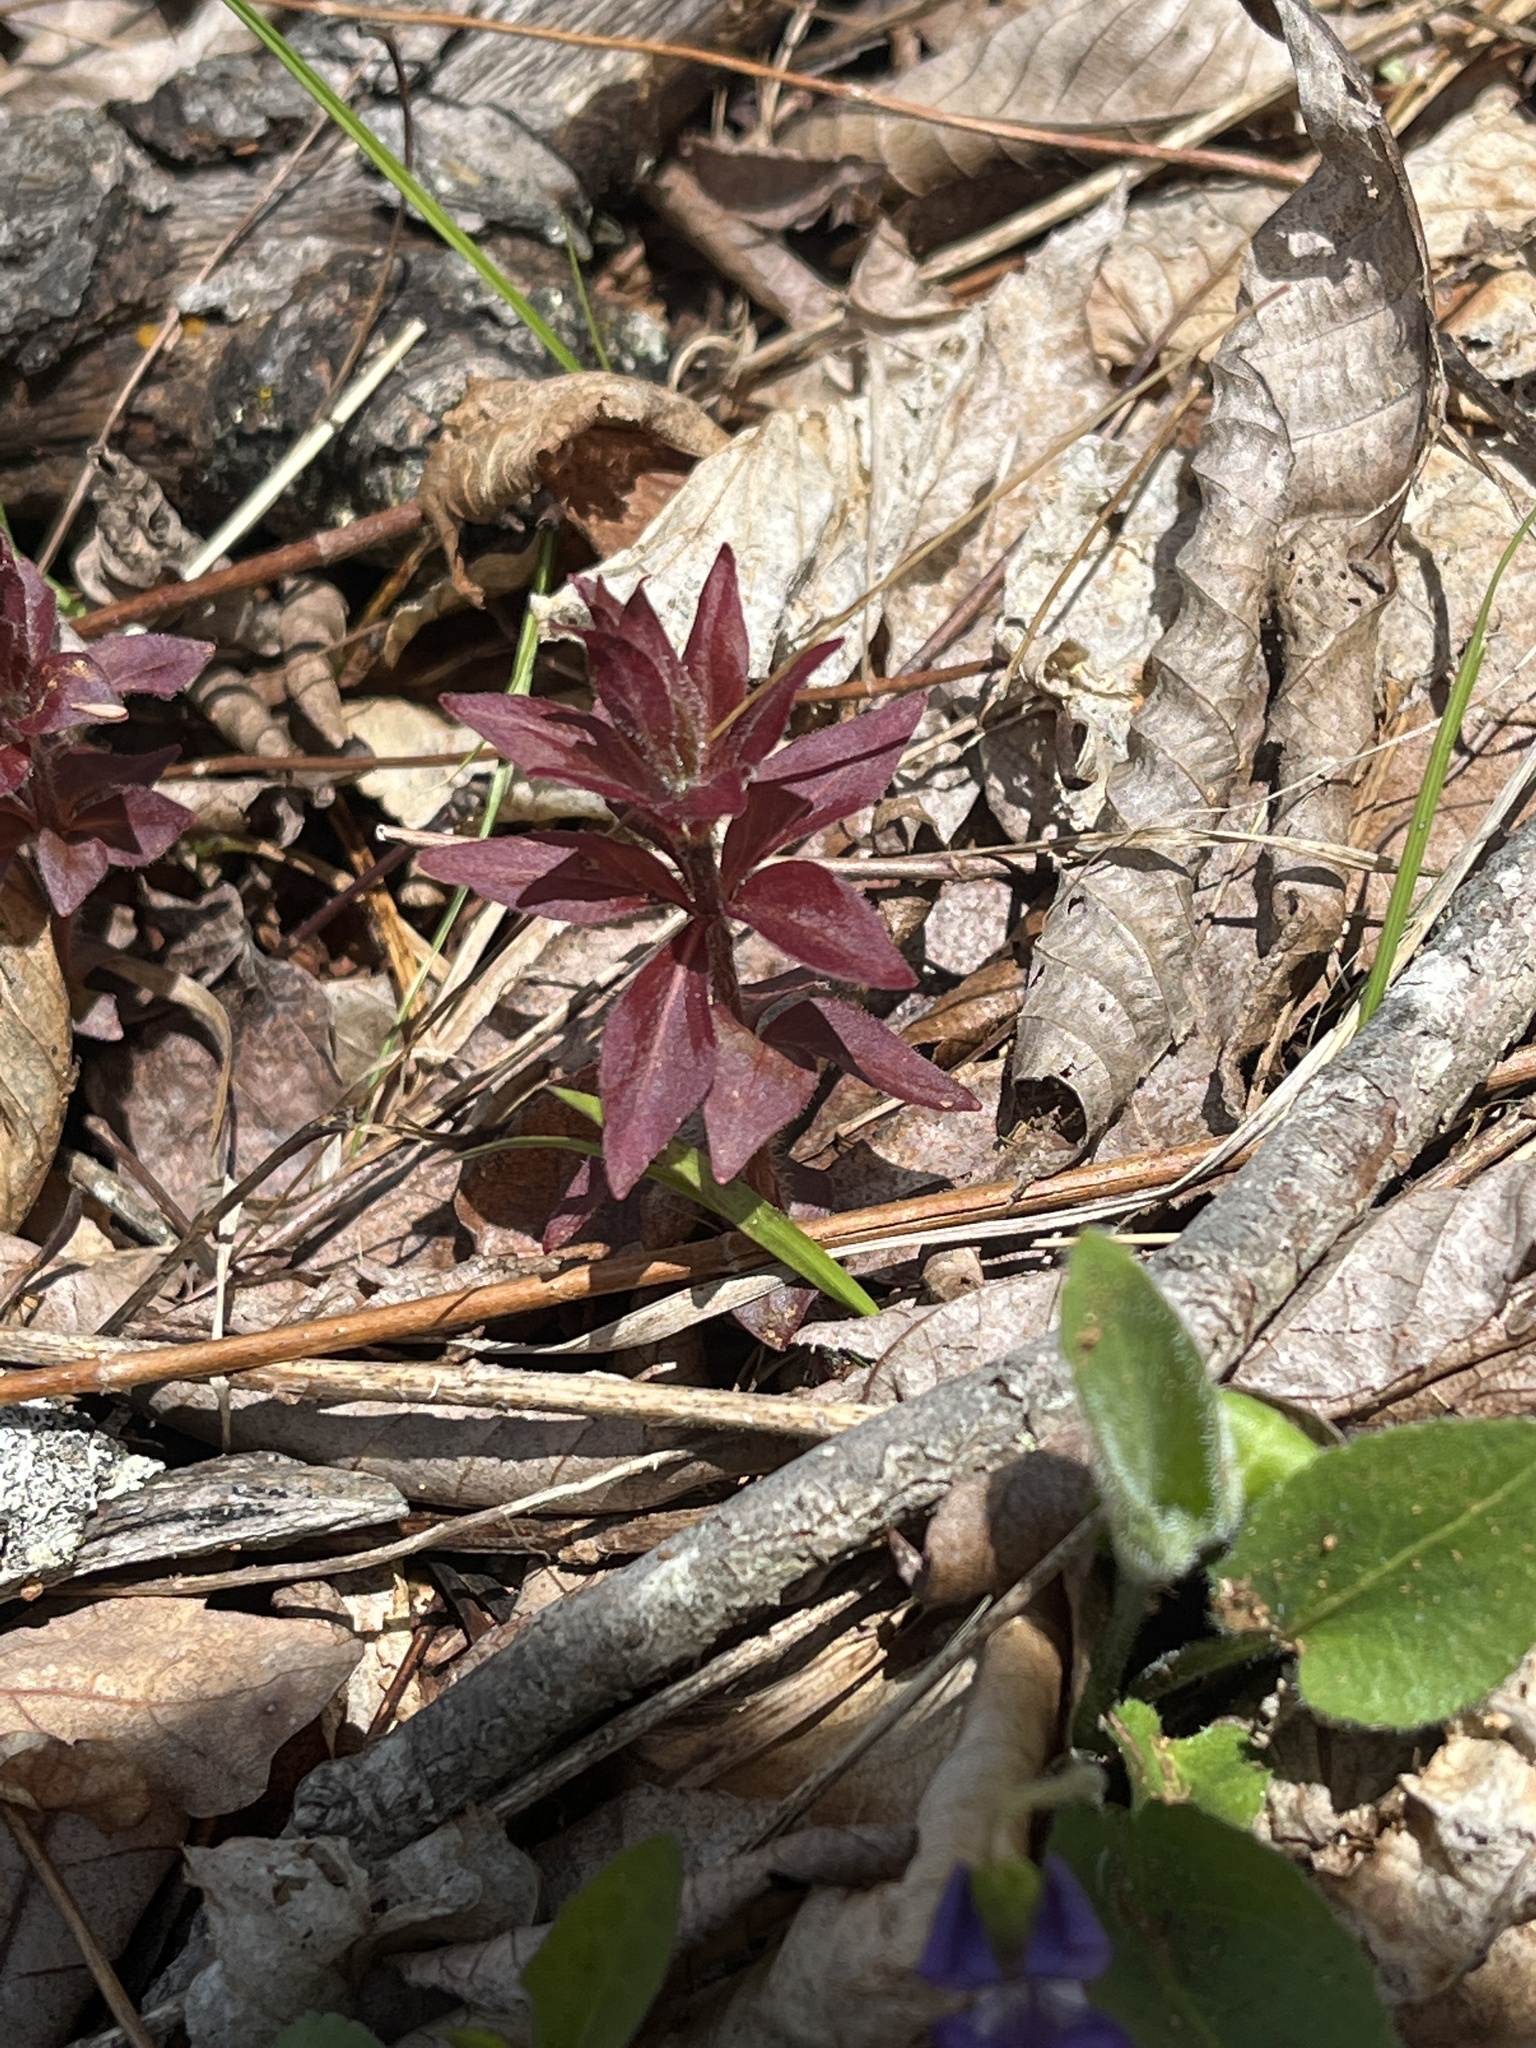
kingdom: Plantae
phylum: Tracheophyta
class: Magnoliopsida
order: Ericales
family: Primulaceae
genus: Lysimachia
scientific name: Lysimachia quadrifolia
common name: Whorled loosestrife
